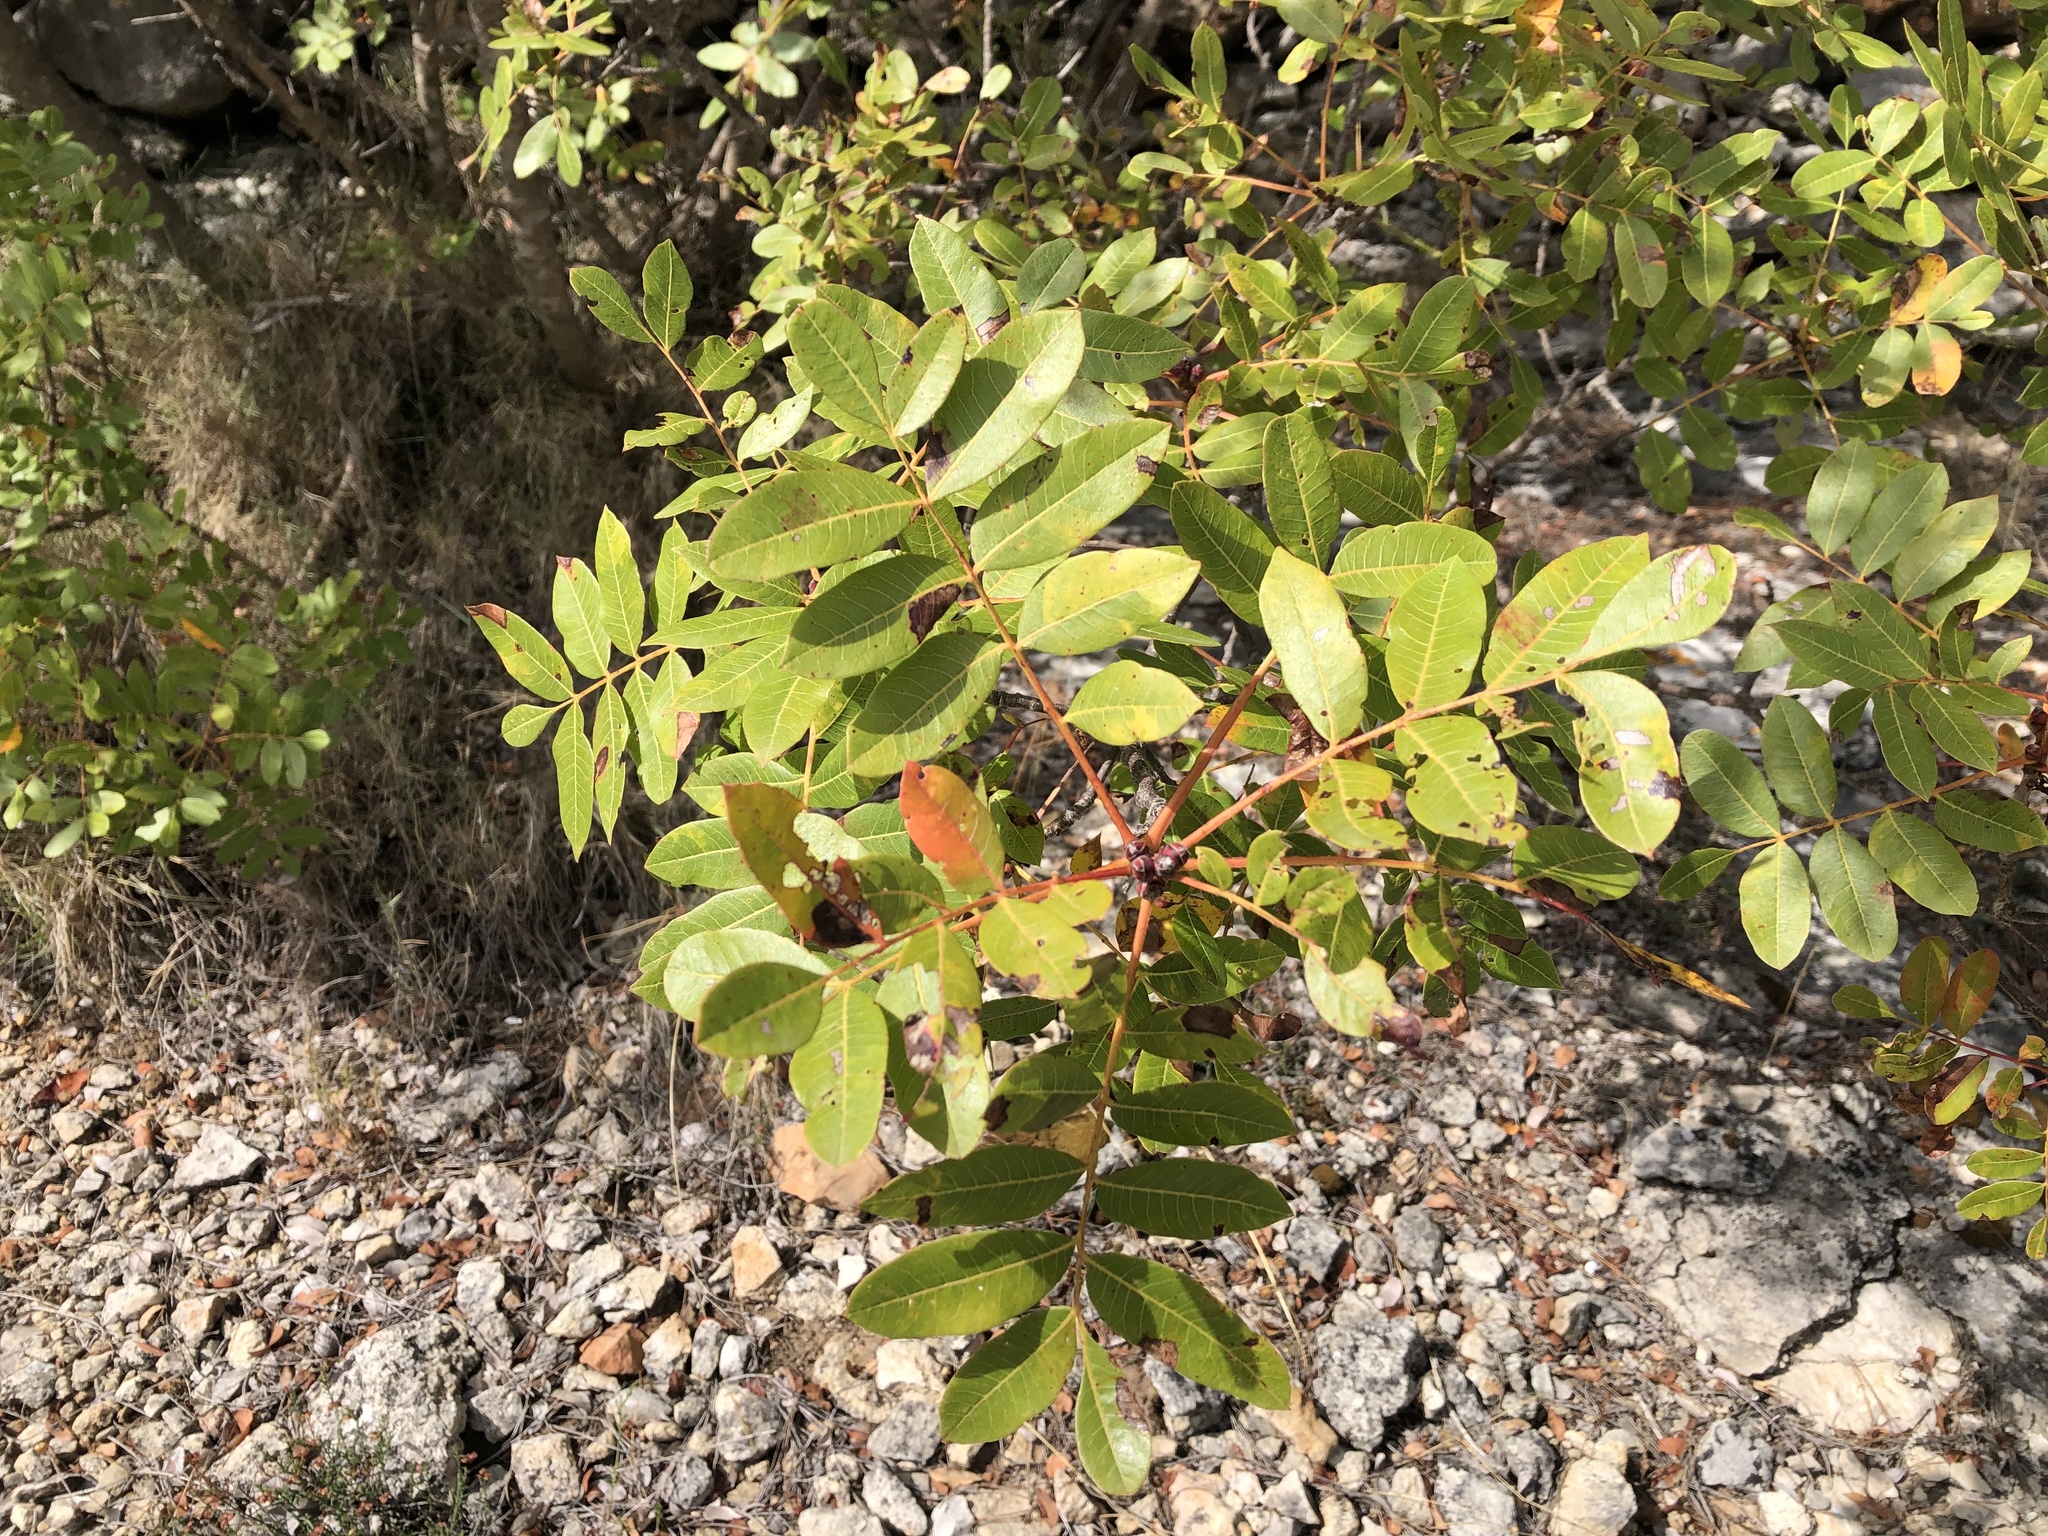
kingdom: Plantae
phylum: Tracheophyta
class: Magnoliopsida
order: Sapindales
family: Anacardiaceae
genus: Pistacia
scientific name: Pistacia terebinthus
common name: Terebinth
